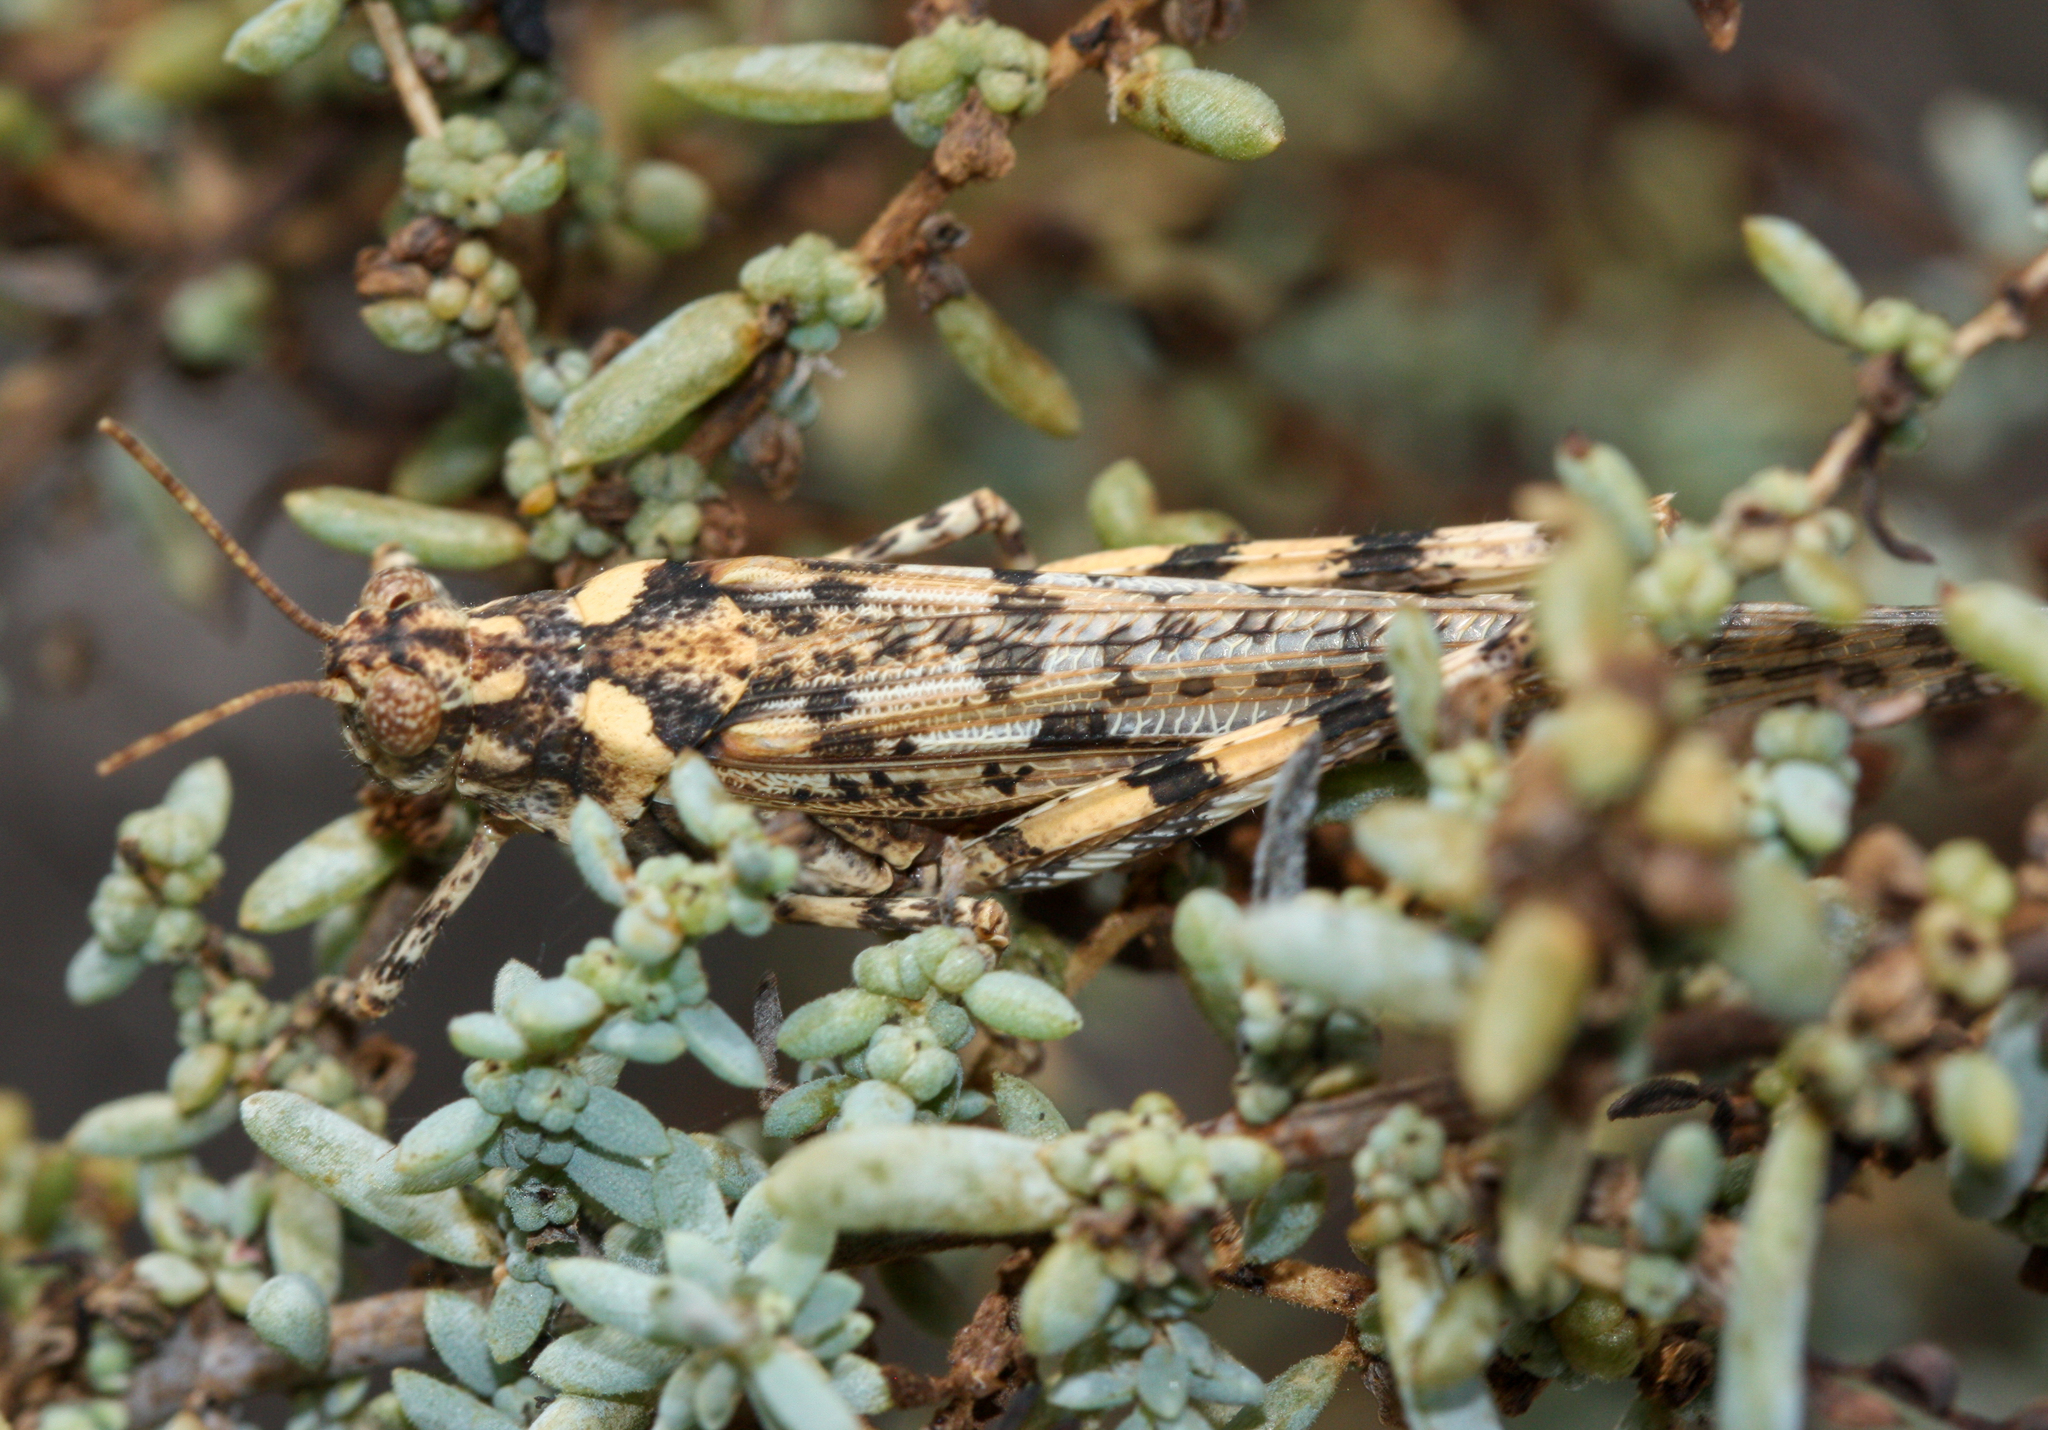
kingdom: Animalia
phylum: Arthropoda
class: Insecta
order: Orthoptera
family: Acrididae
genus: Anconia
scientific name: Anconia integra
